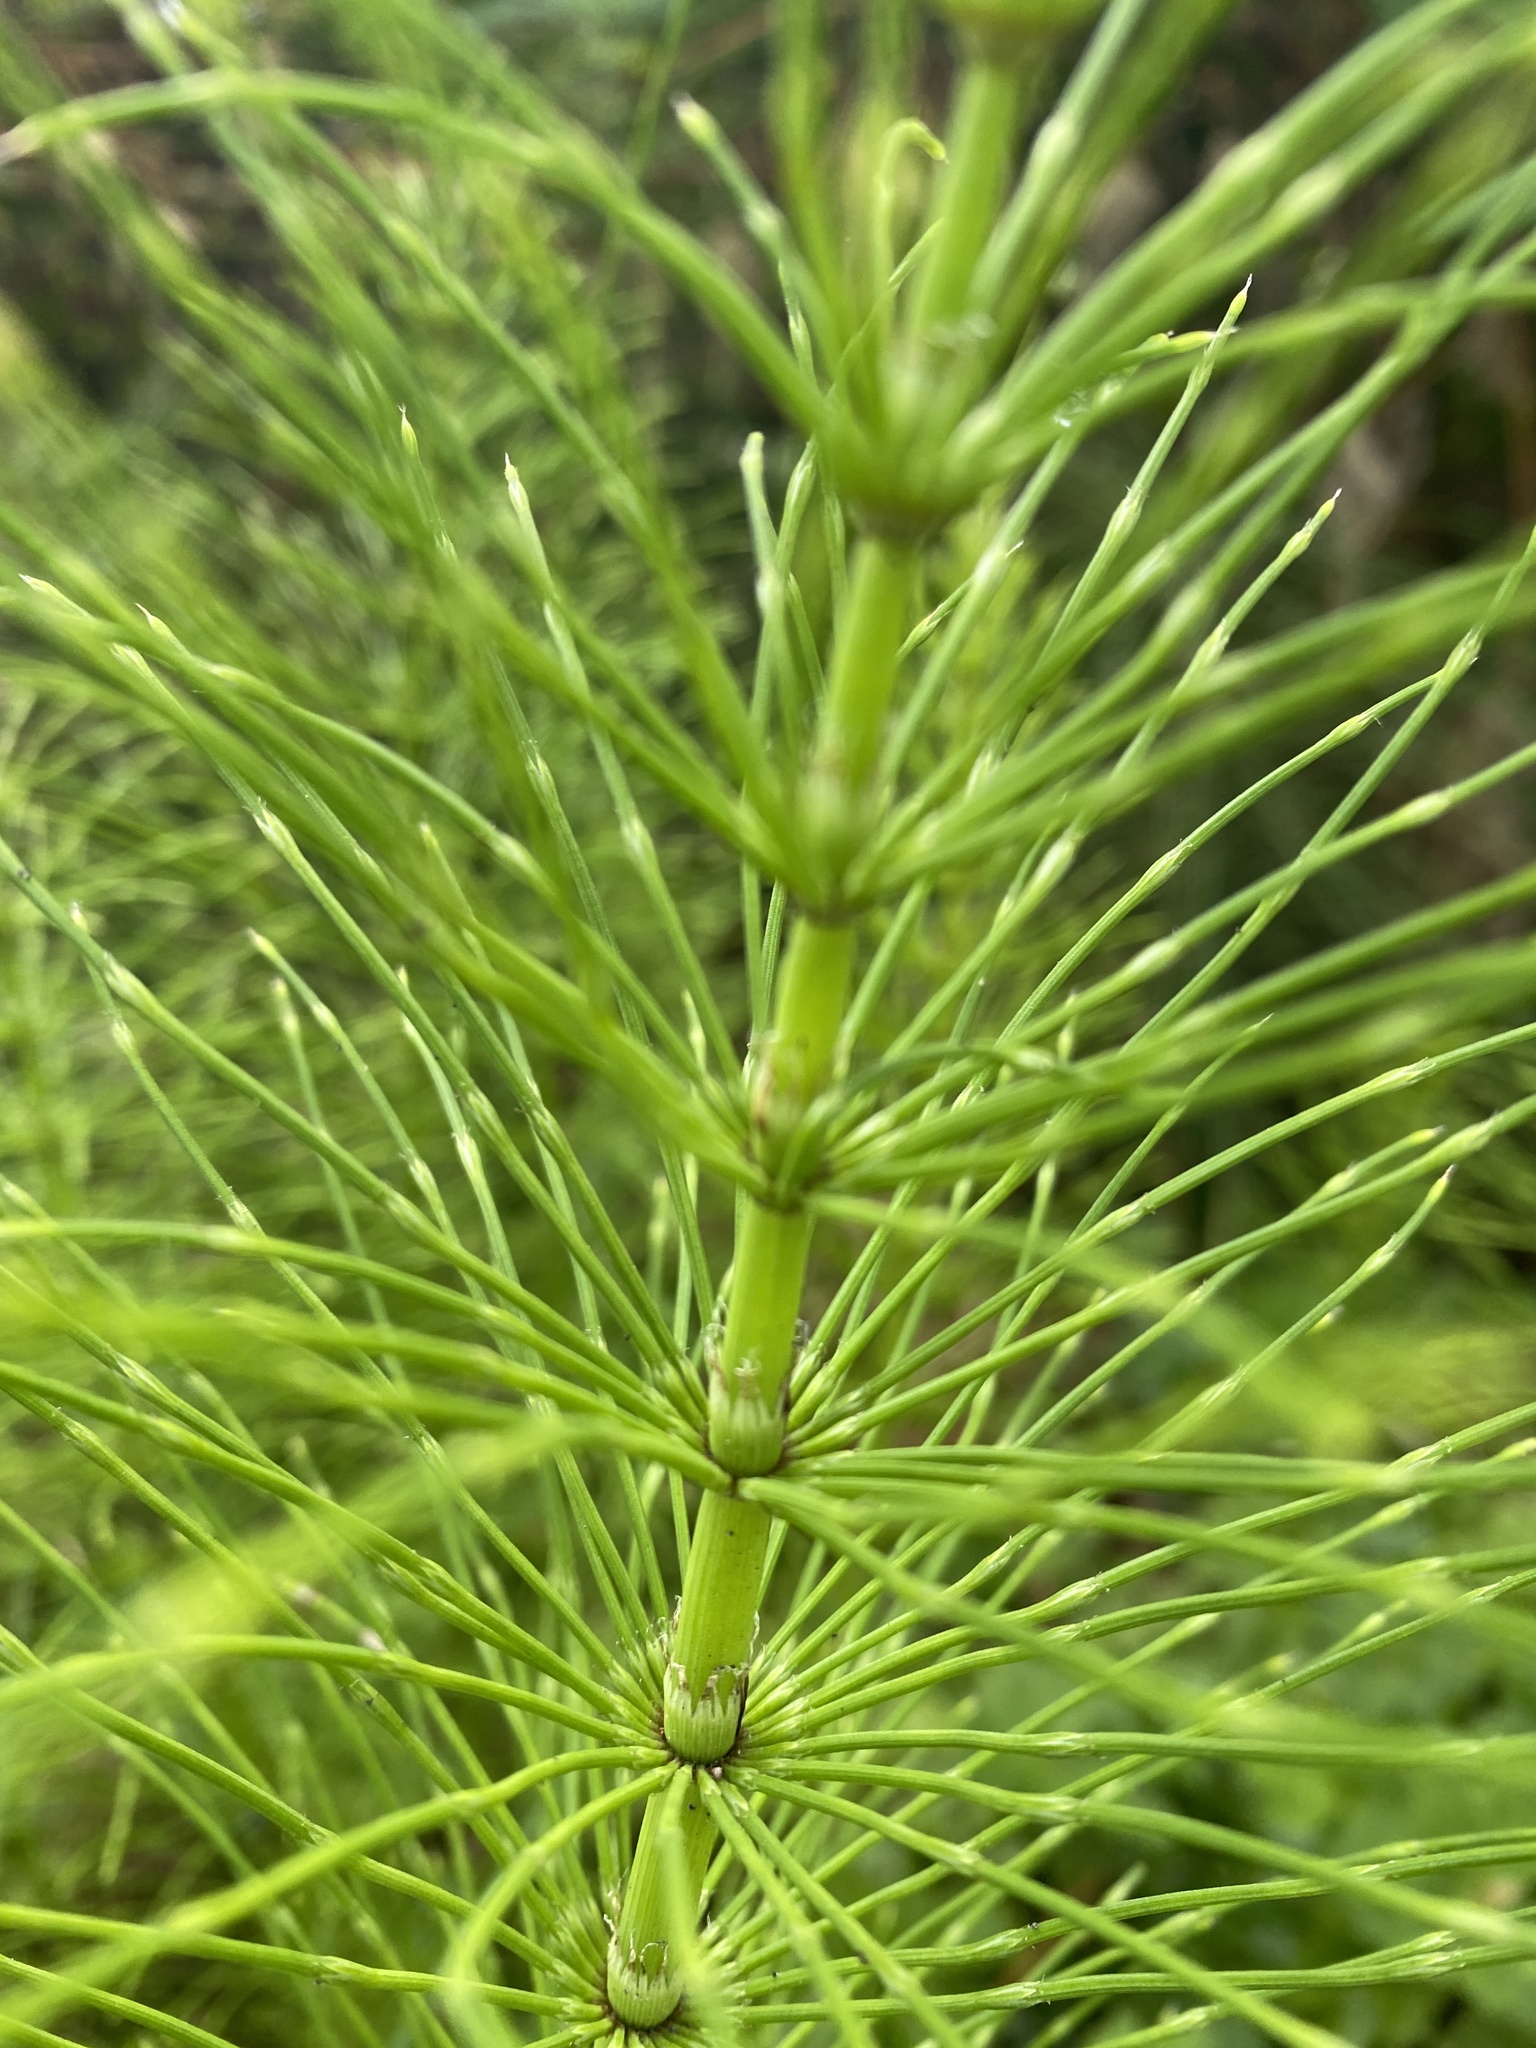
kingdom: Plantae
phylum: Tracheophyta
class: Polypodiopsida
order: Equisetales
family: Equisetaceae
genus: Equisetum
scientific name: Equisetum telmateia
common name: Great horsetail
